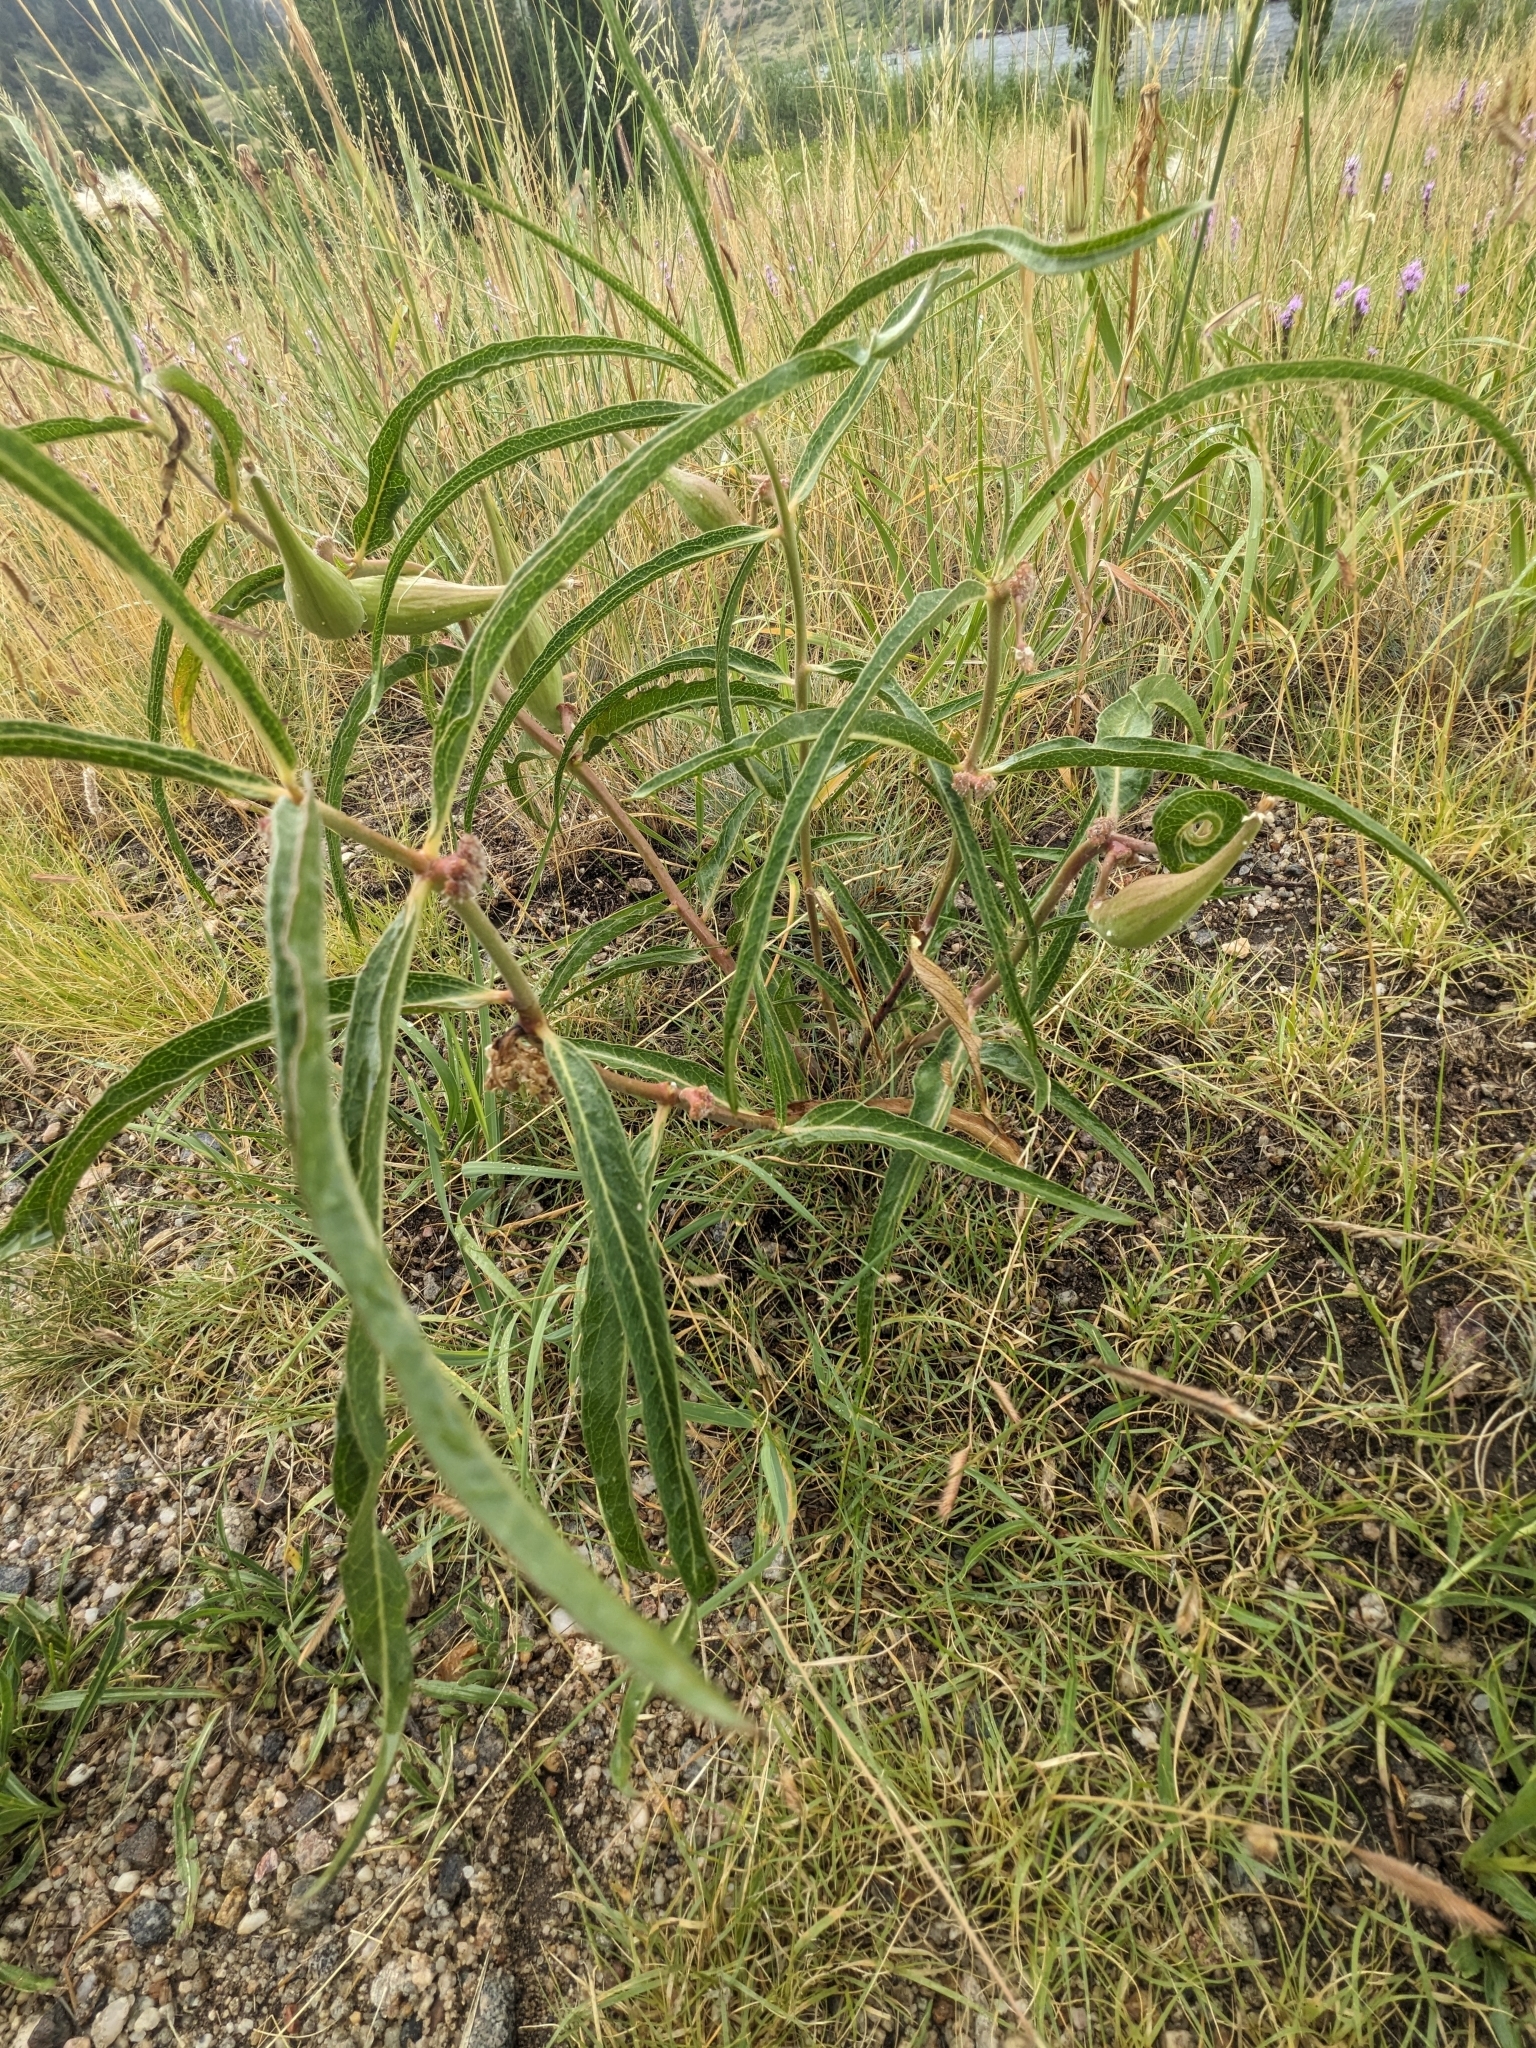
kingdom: Plantae
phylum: Tracheophyta
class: Magnoliopsida
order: Gentianales
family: Apocynaceae
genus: Asclepias
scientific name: Asclepias viridiflora
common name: Green comet milkweed
